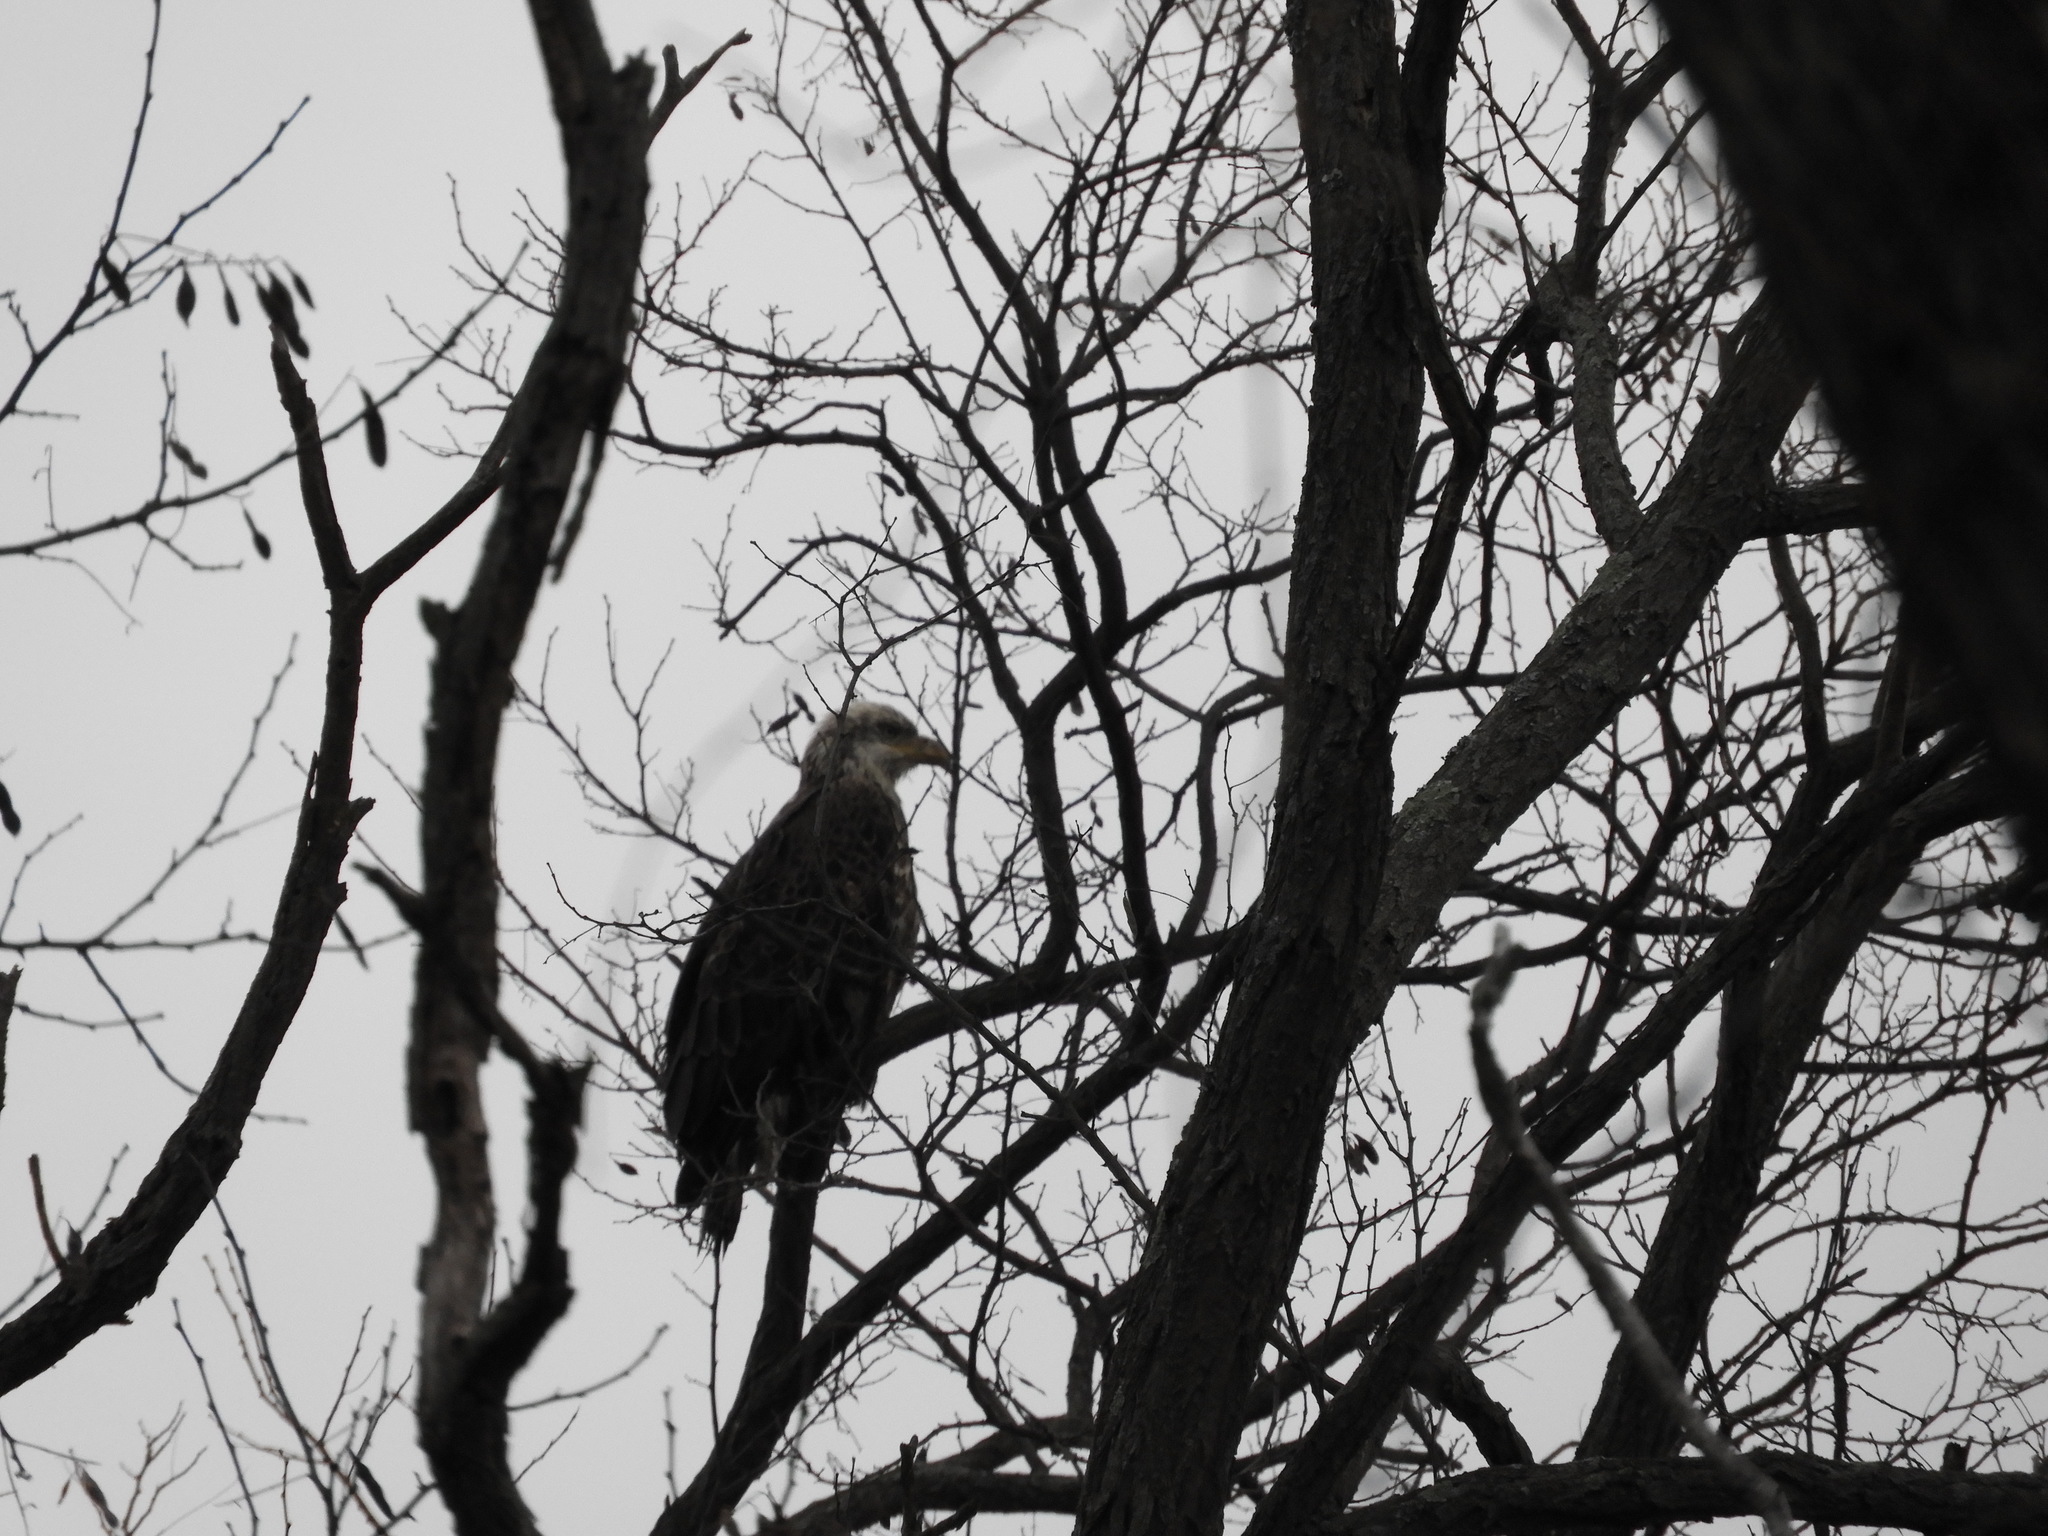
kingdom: Animalia
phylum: Chordata
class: Aves
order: Accipitriformes
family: Accipitridae
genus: Haliaeetus
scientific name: Haliaeetus leucocephalus
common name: Bald eagle
